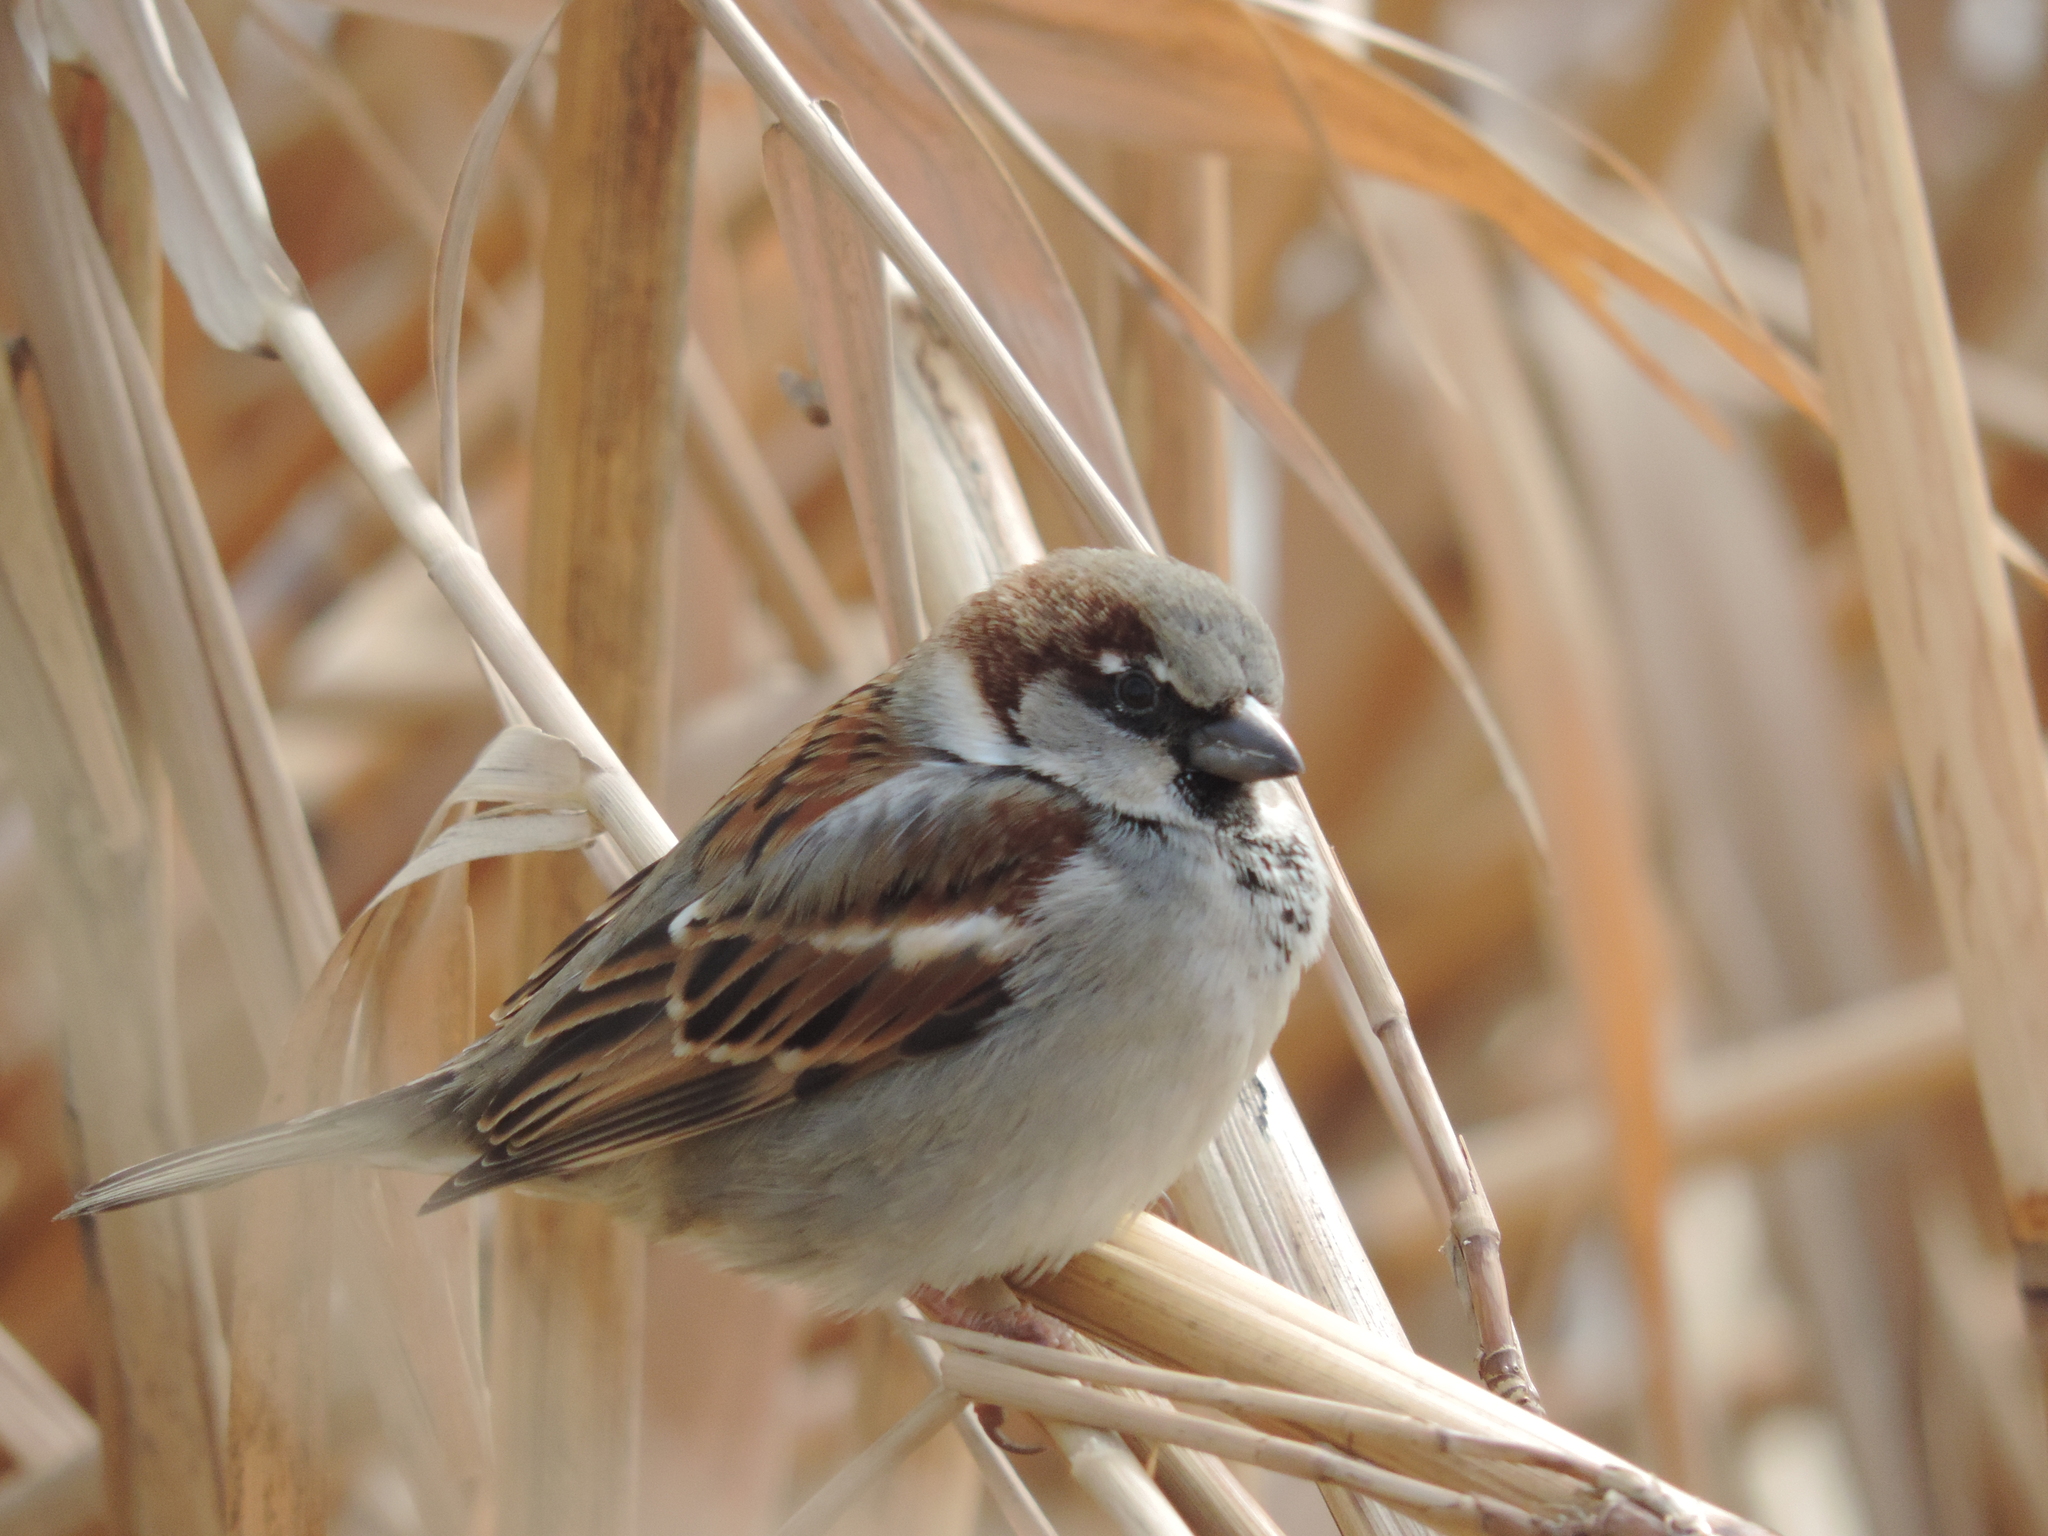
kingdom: Animalia
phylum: Chordata
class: Aves
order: Passeriformes
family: Passeridae
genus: Passer
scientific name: Passer domesticus
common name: House sparrow
